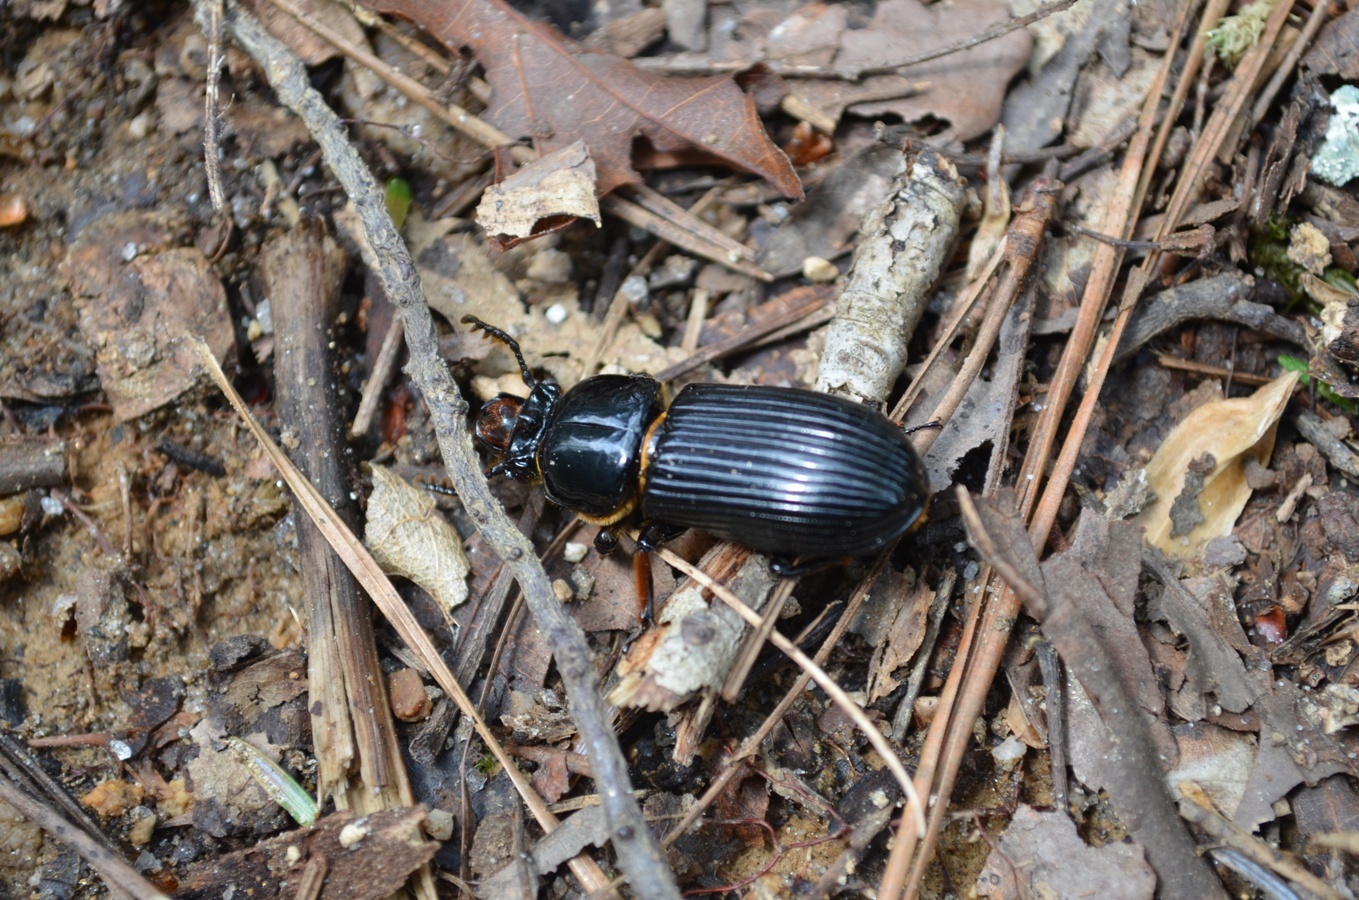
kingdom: Animalia
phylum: Arthropoda
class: Insecta
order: Coleoptera
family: Passalidae
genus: Odontotaenius
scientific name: Odontotaenius disjunctus
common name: Patent leather beetle
